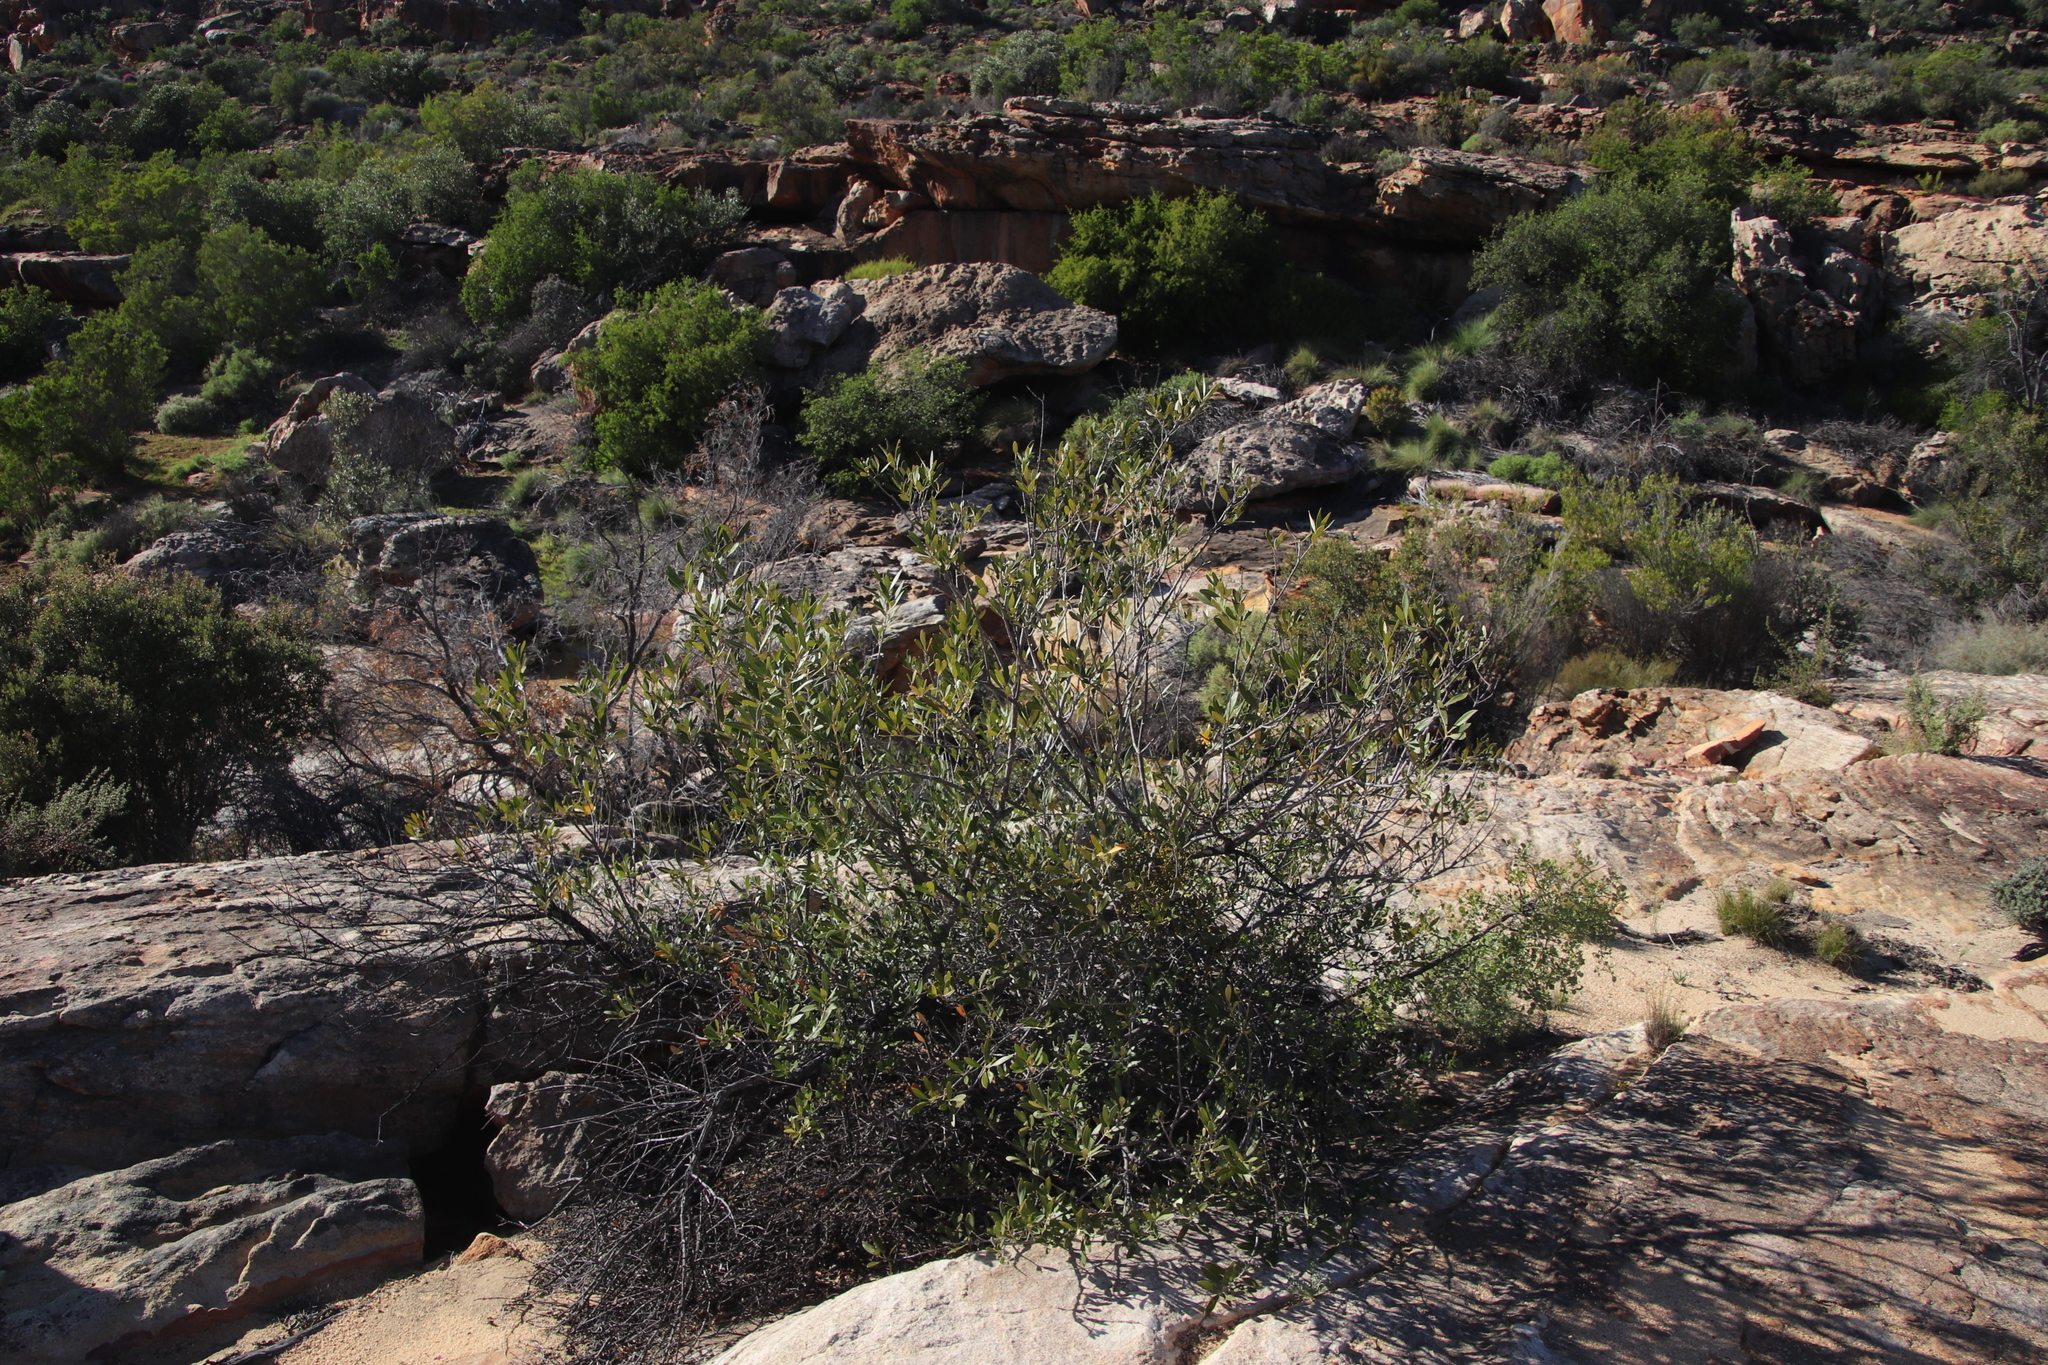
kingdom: Plantae
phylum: Tracheophyta
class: Magnoliopsida
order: Lamiales
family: Oleaceae
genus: Olea
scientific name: Olea europaea
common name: Olive
